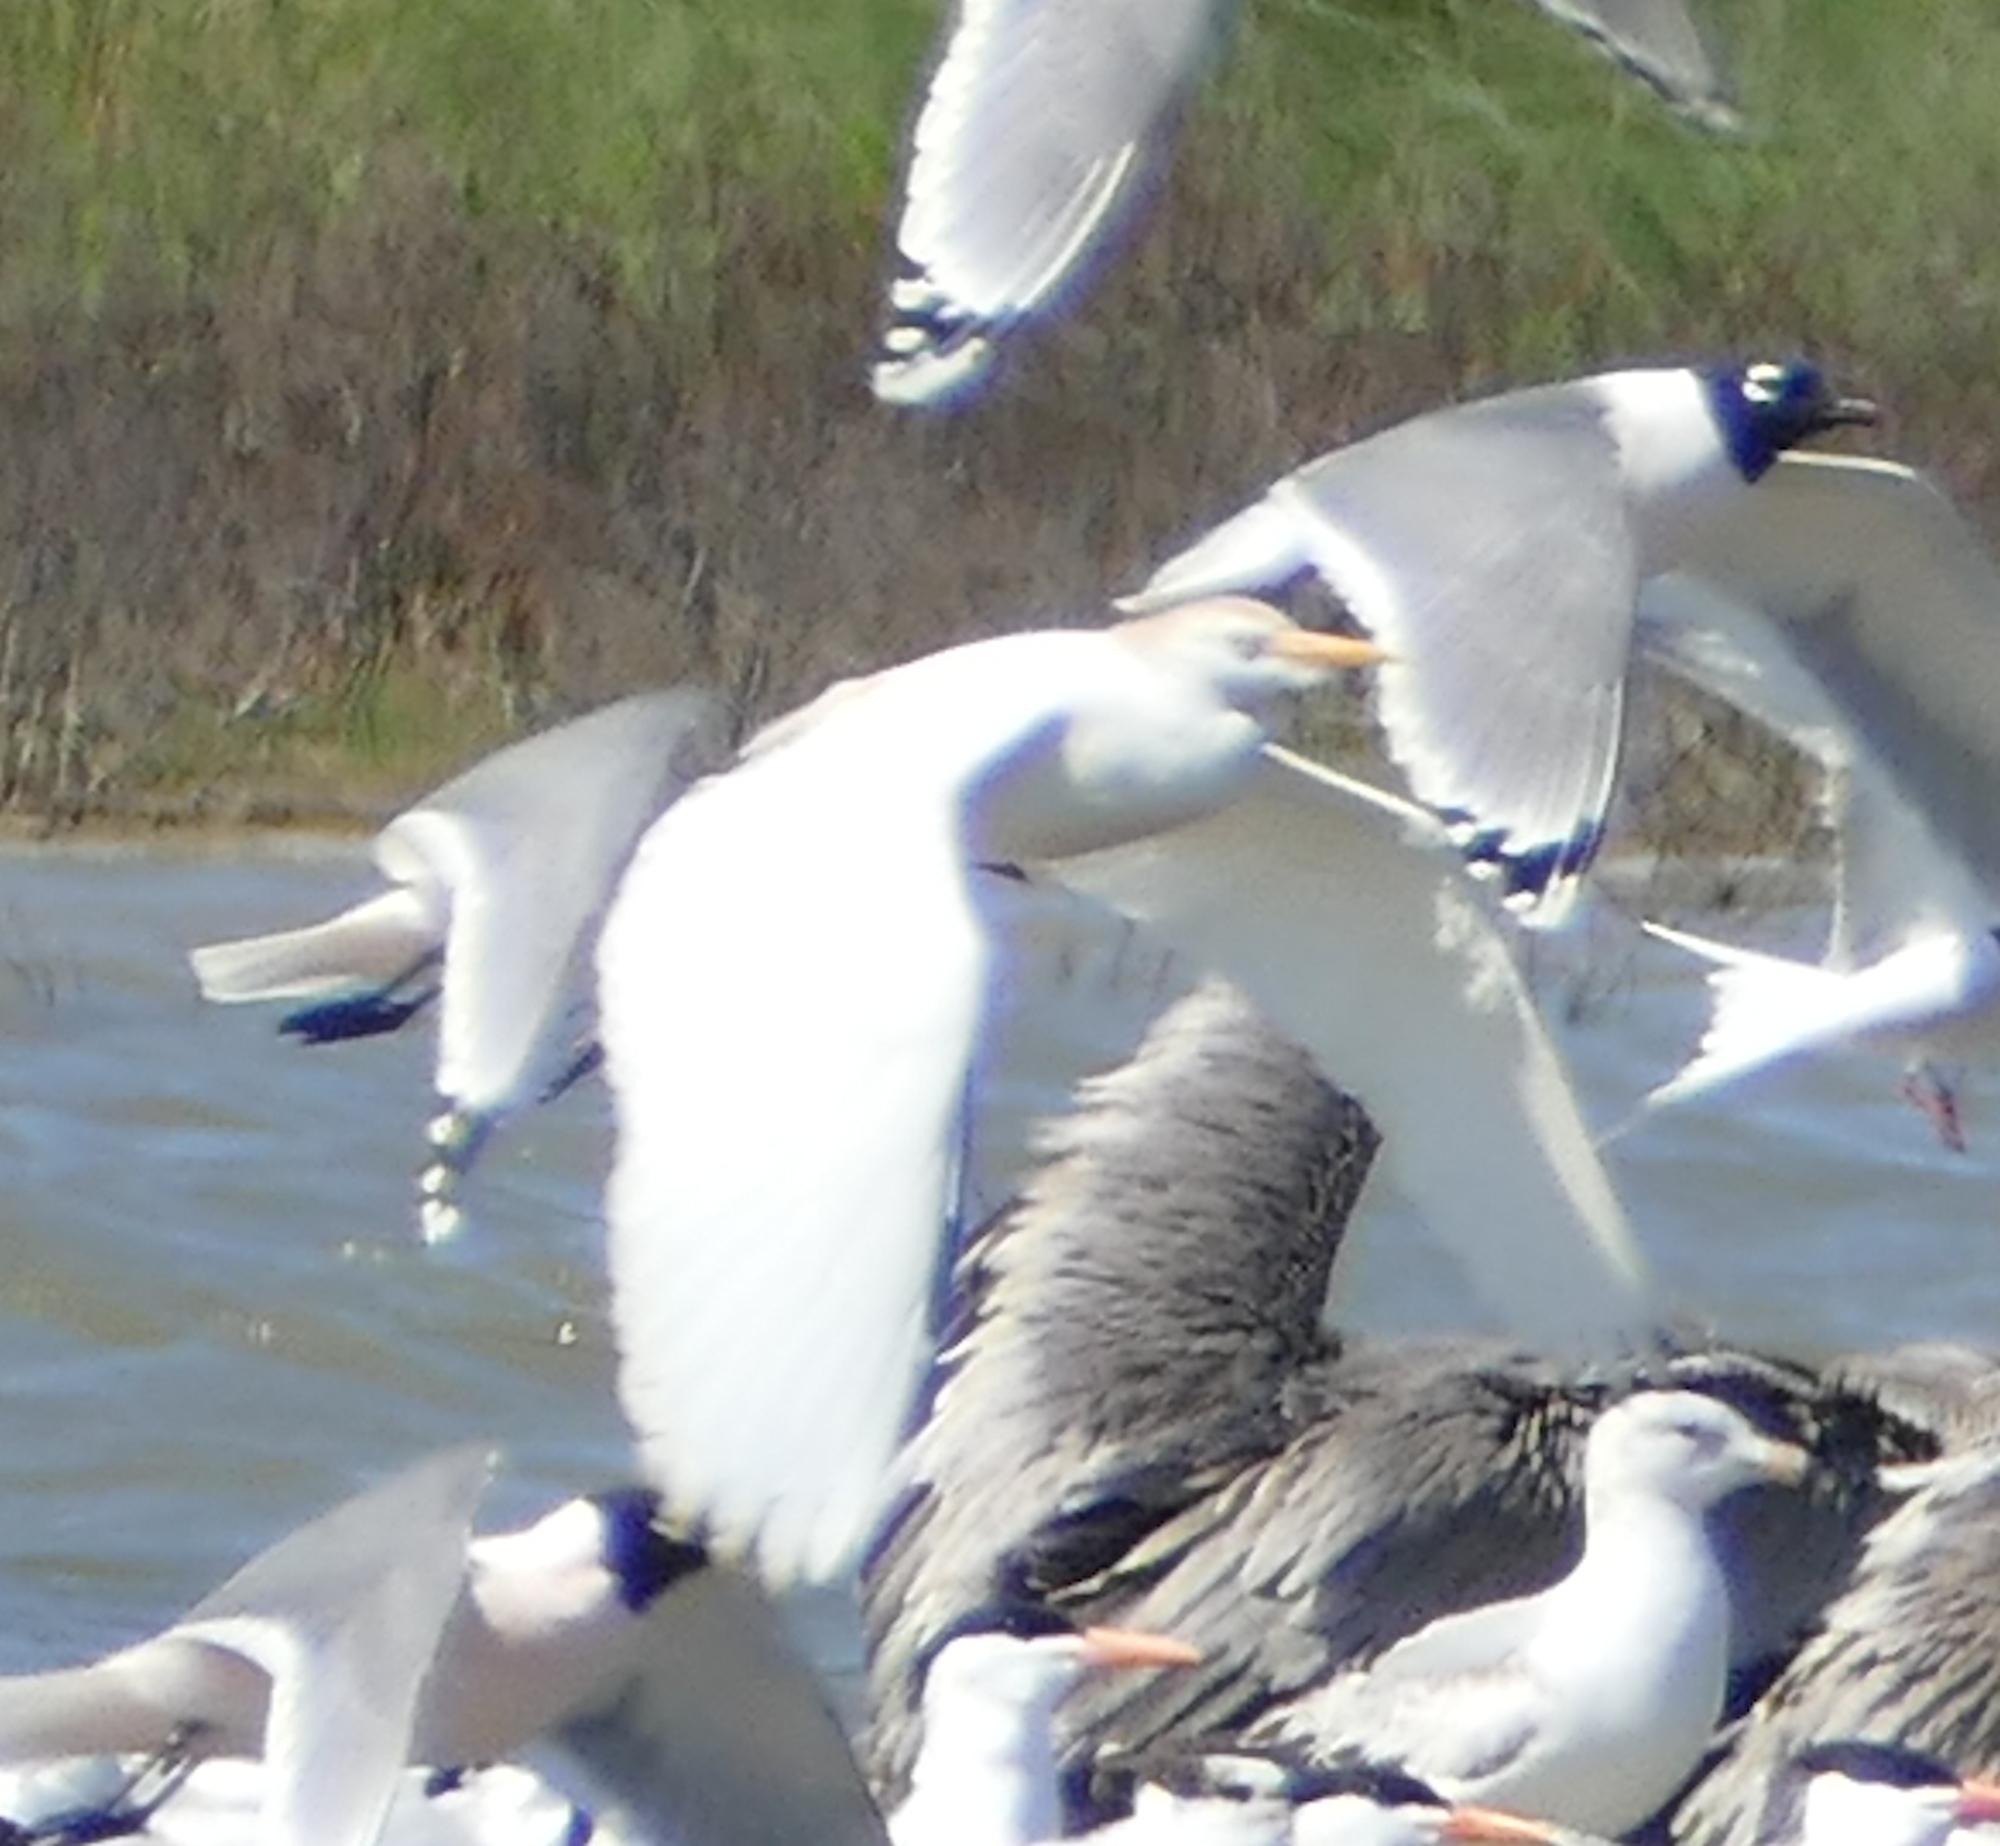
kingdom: Animalia
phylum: Chordata
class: Aves
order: Pelecaniformes
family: Ardeidae
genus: Bubulcus
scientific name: Bubulcus ibis
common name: Cattle egret
